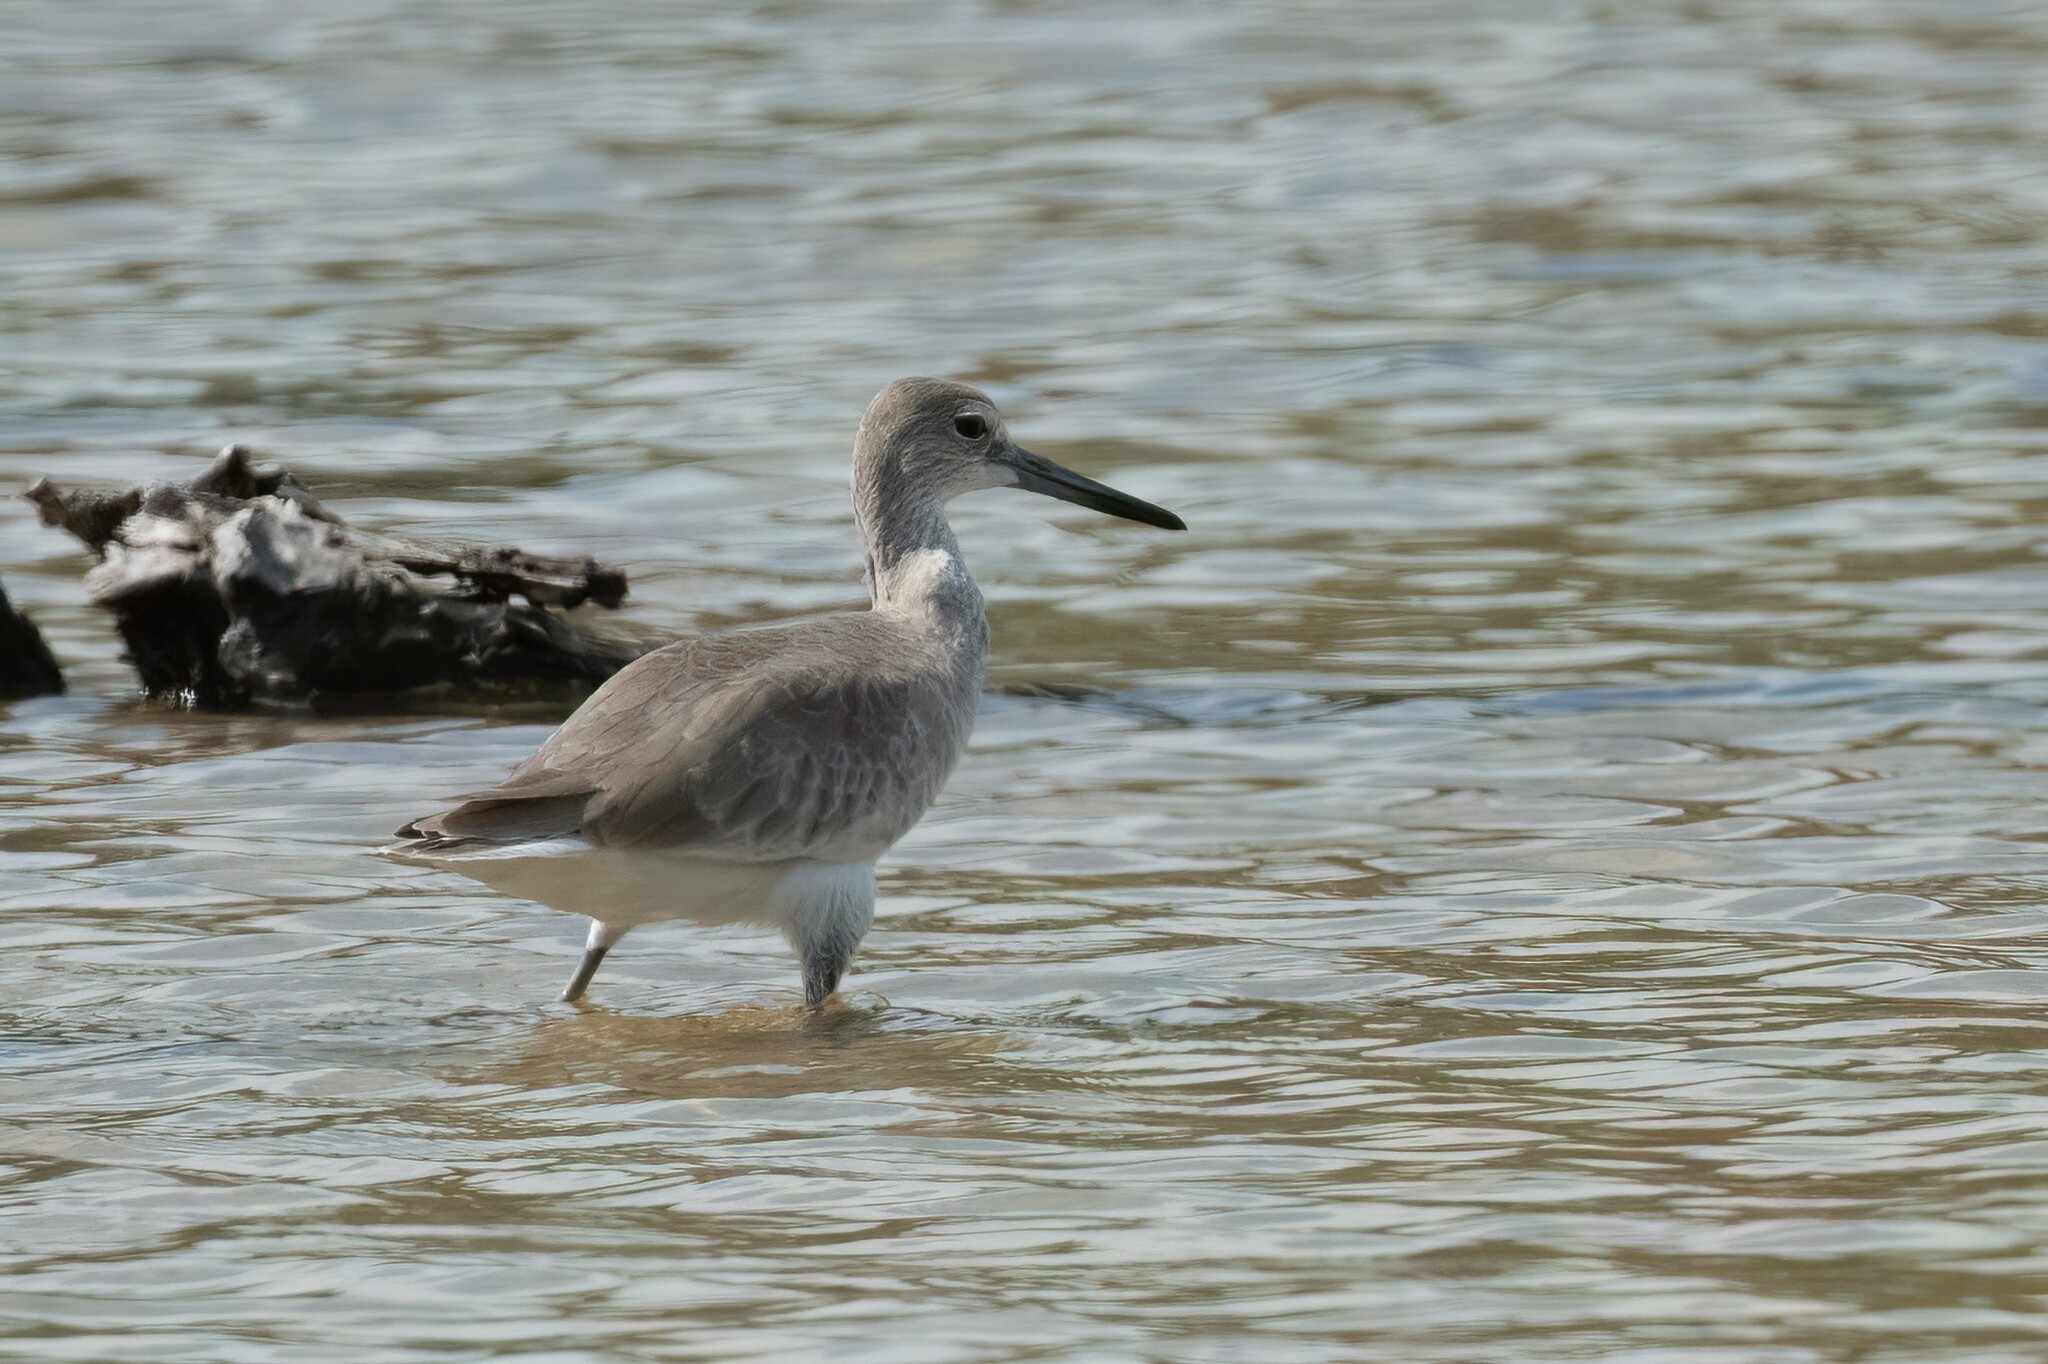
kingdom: Animalia
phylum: Chordata
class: Aves
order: Charadriiformes
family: Scolopacidae
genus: Tringa
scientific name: Tringa semipalmata
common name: Willet
